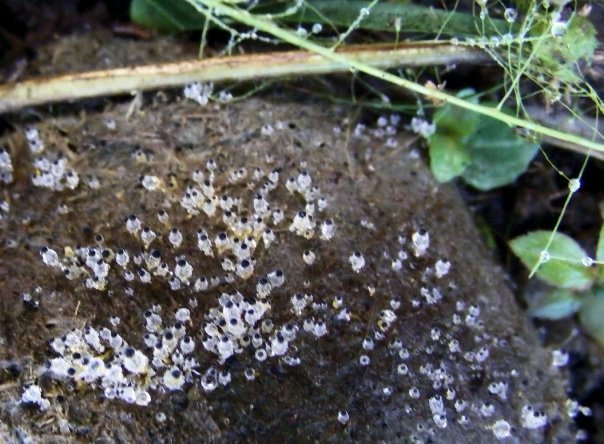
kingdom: Fungi
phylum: Mucoromycota
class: Mucoromycetes
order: Mucorales
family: Pilobolaceae
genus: Pilobolus
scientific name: Pilobolus
